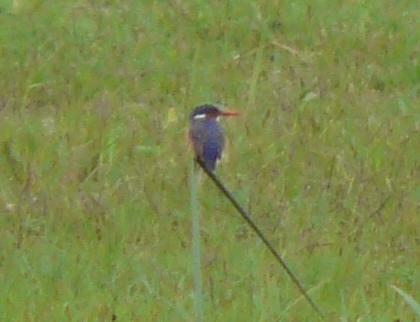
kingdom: Animalia
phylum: Chordata
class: Aves
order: Coraciiformes
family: Alcedinidae
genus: Corythornis
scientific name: Corythornis cristatus
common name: Malachite kingfisher
